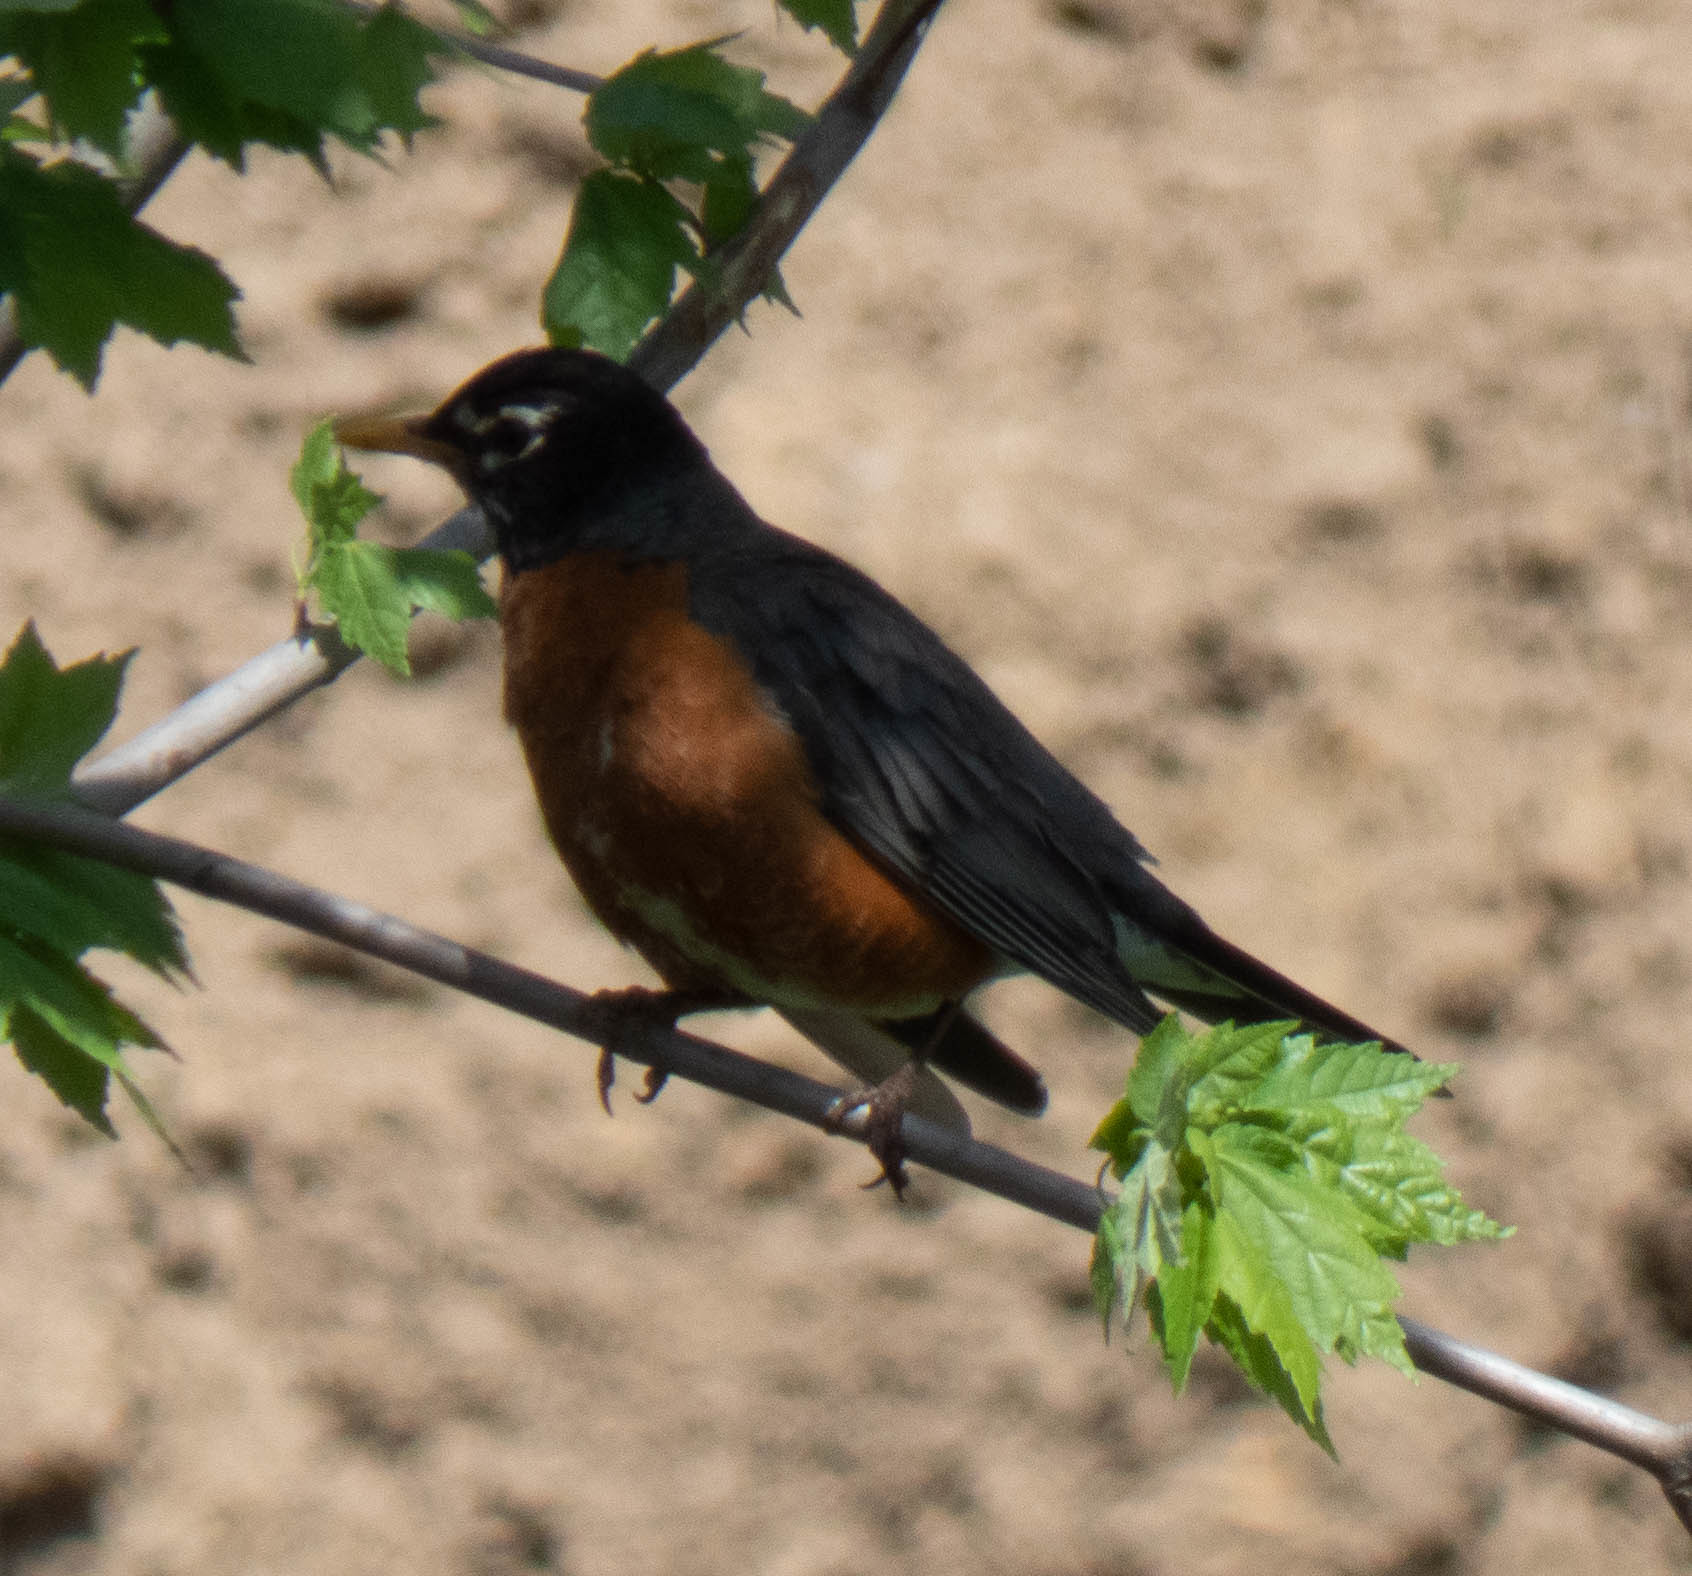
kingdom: Animalia
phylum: Chordata
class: Aves
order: Passeriformes
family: Turdidae
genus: Turdus
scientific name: Turdus migratorius
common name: American robin
